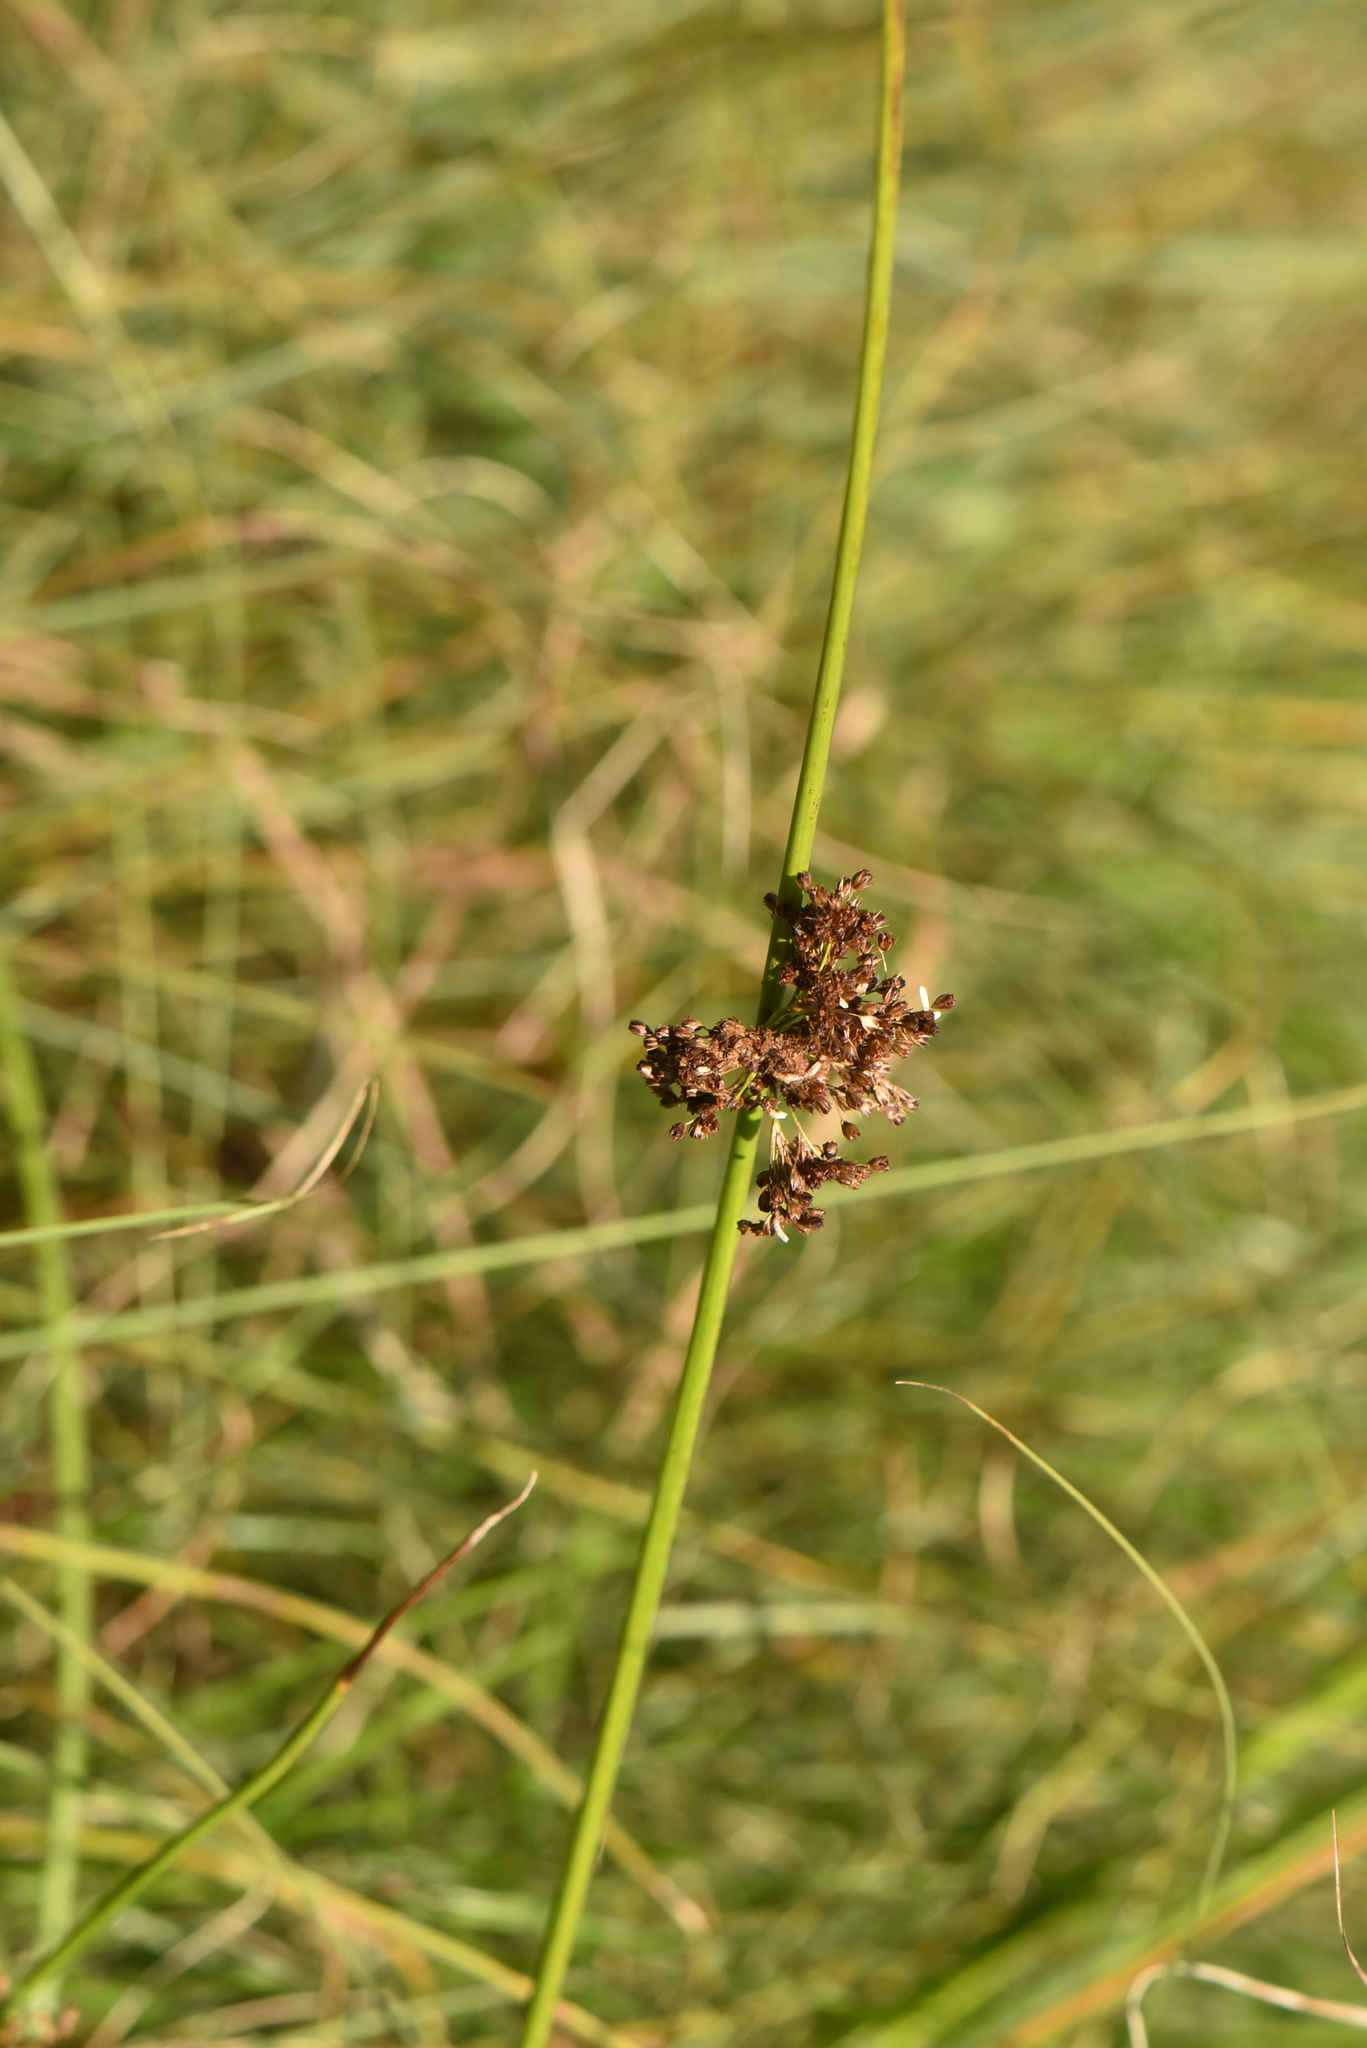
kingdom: Plantae
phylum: Tracheophyta
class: Liliopsida
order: Poales
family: Juncaceae
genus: Juncus
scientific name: Juncus effusus
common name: Soft rush
